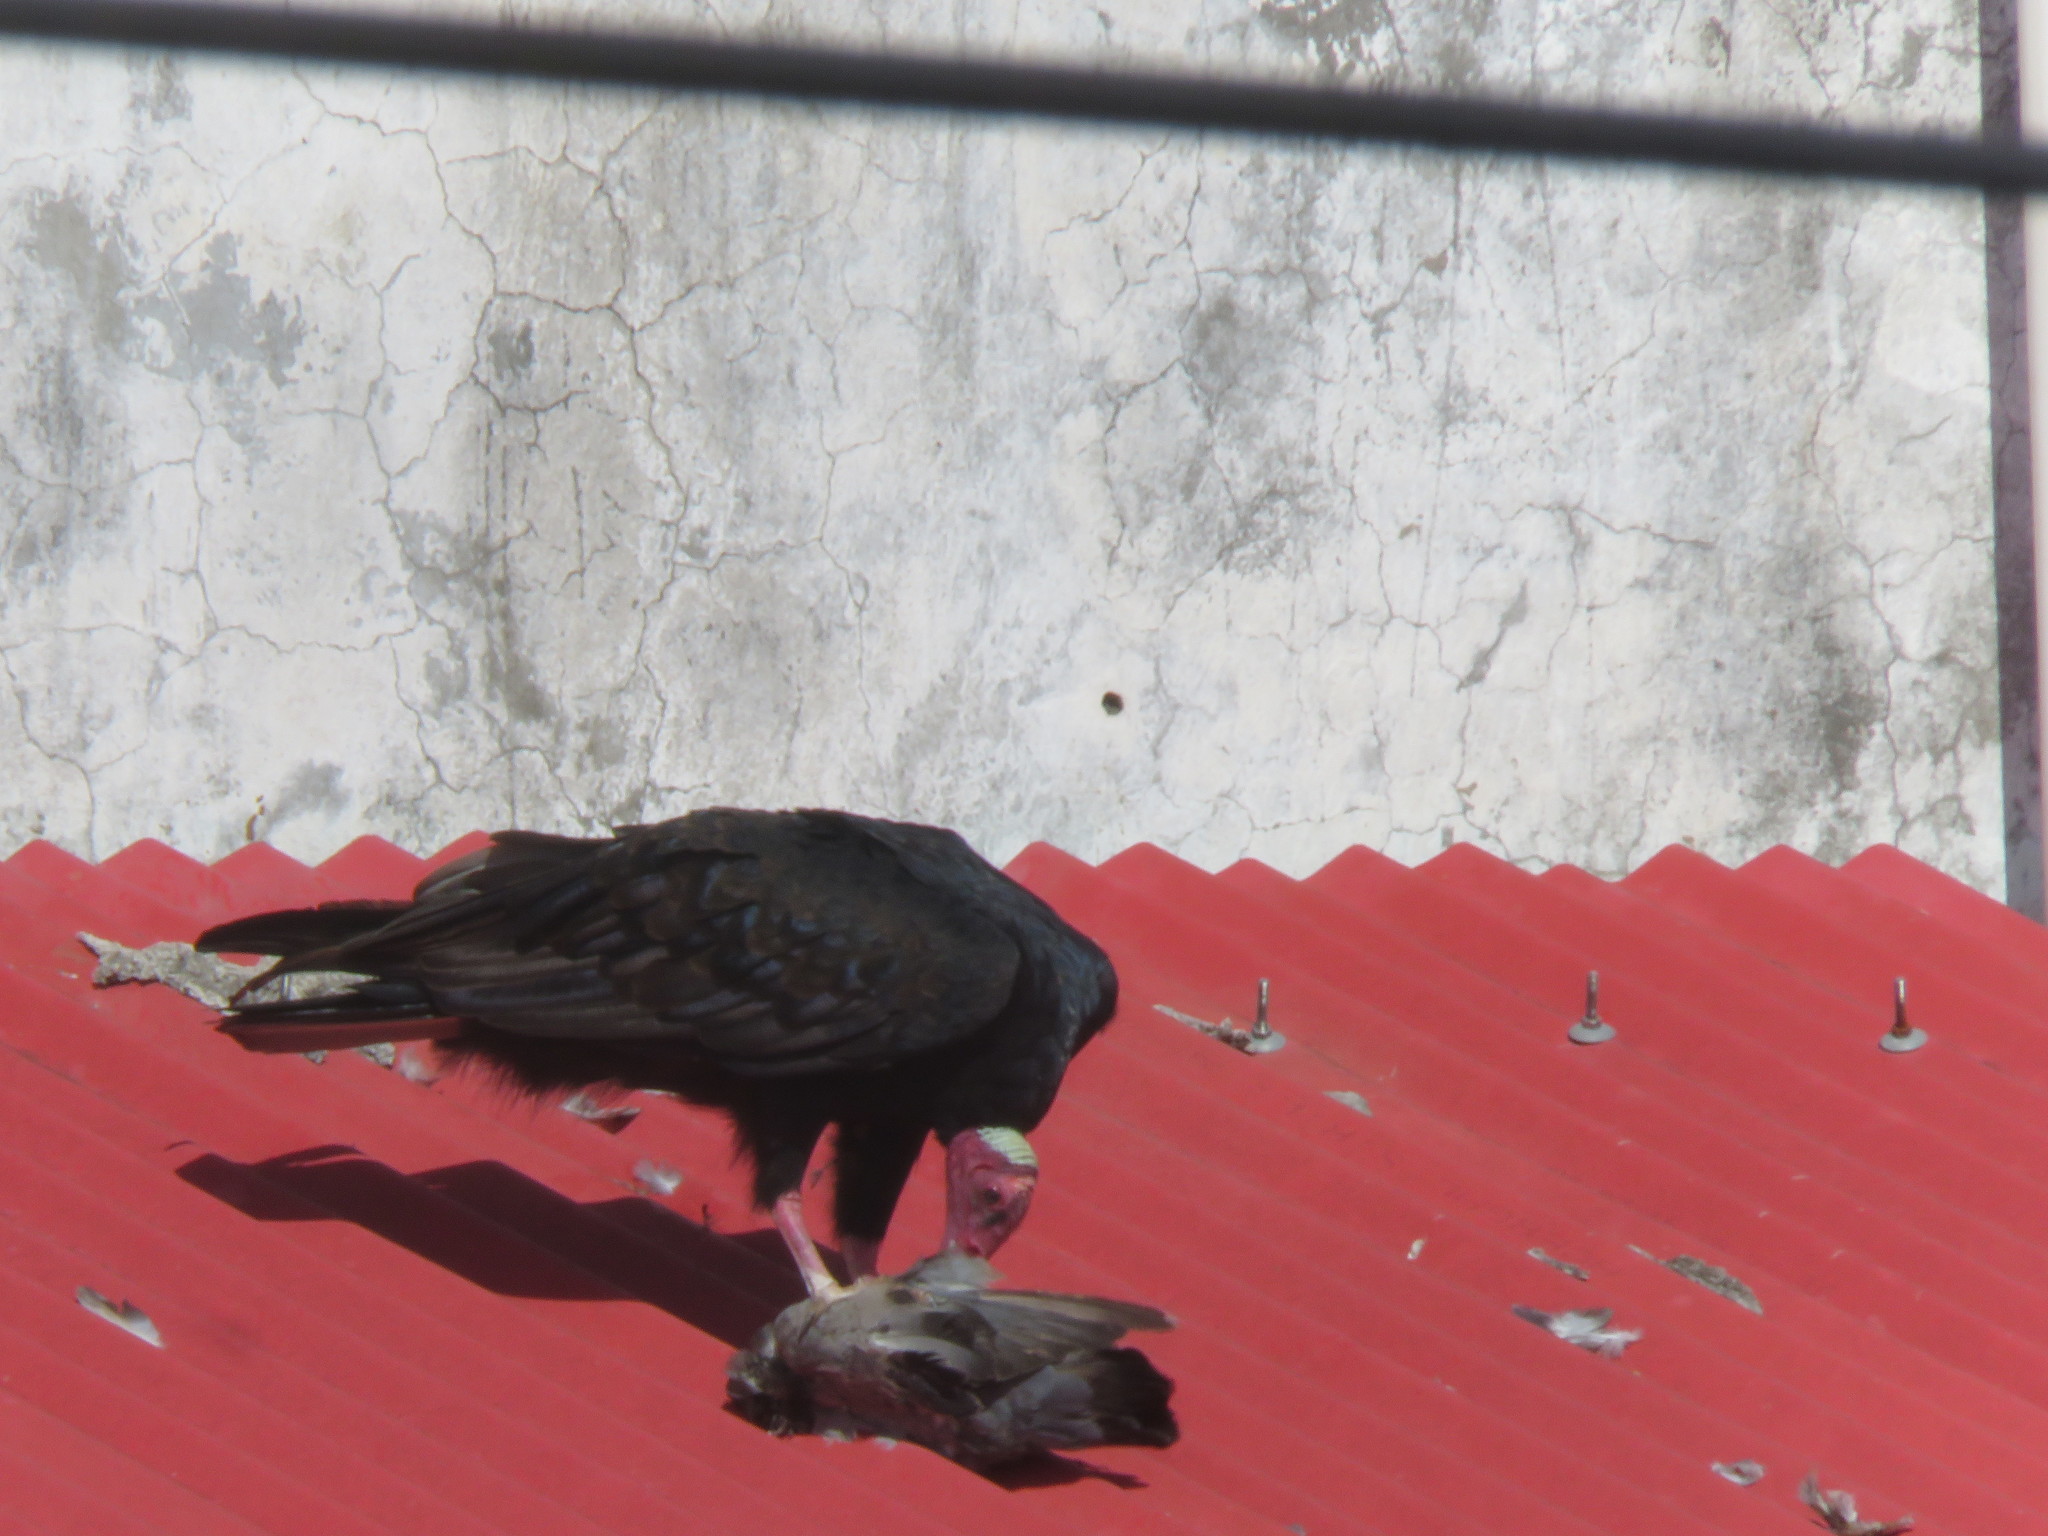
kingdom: Animalia
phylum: Chordata
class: Aves
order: Accipitriformes
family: Cathartidae
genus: Cathartes
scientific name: Cathartes aura
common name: Turkey vulture
